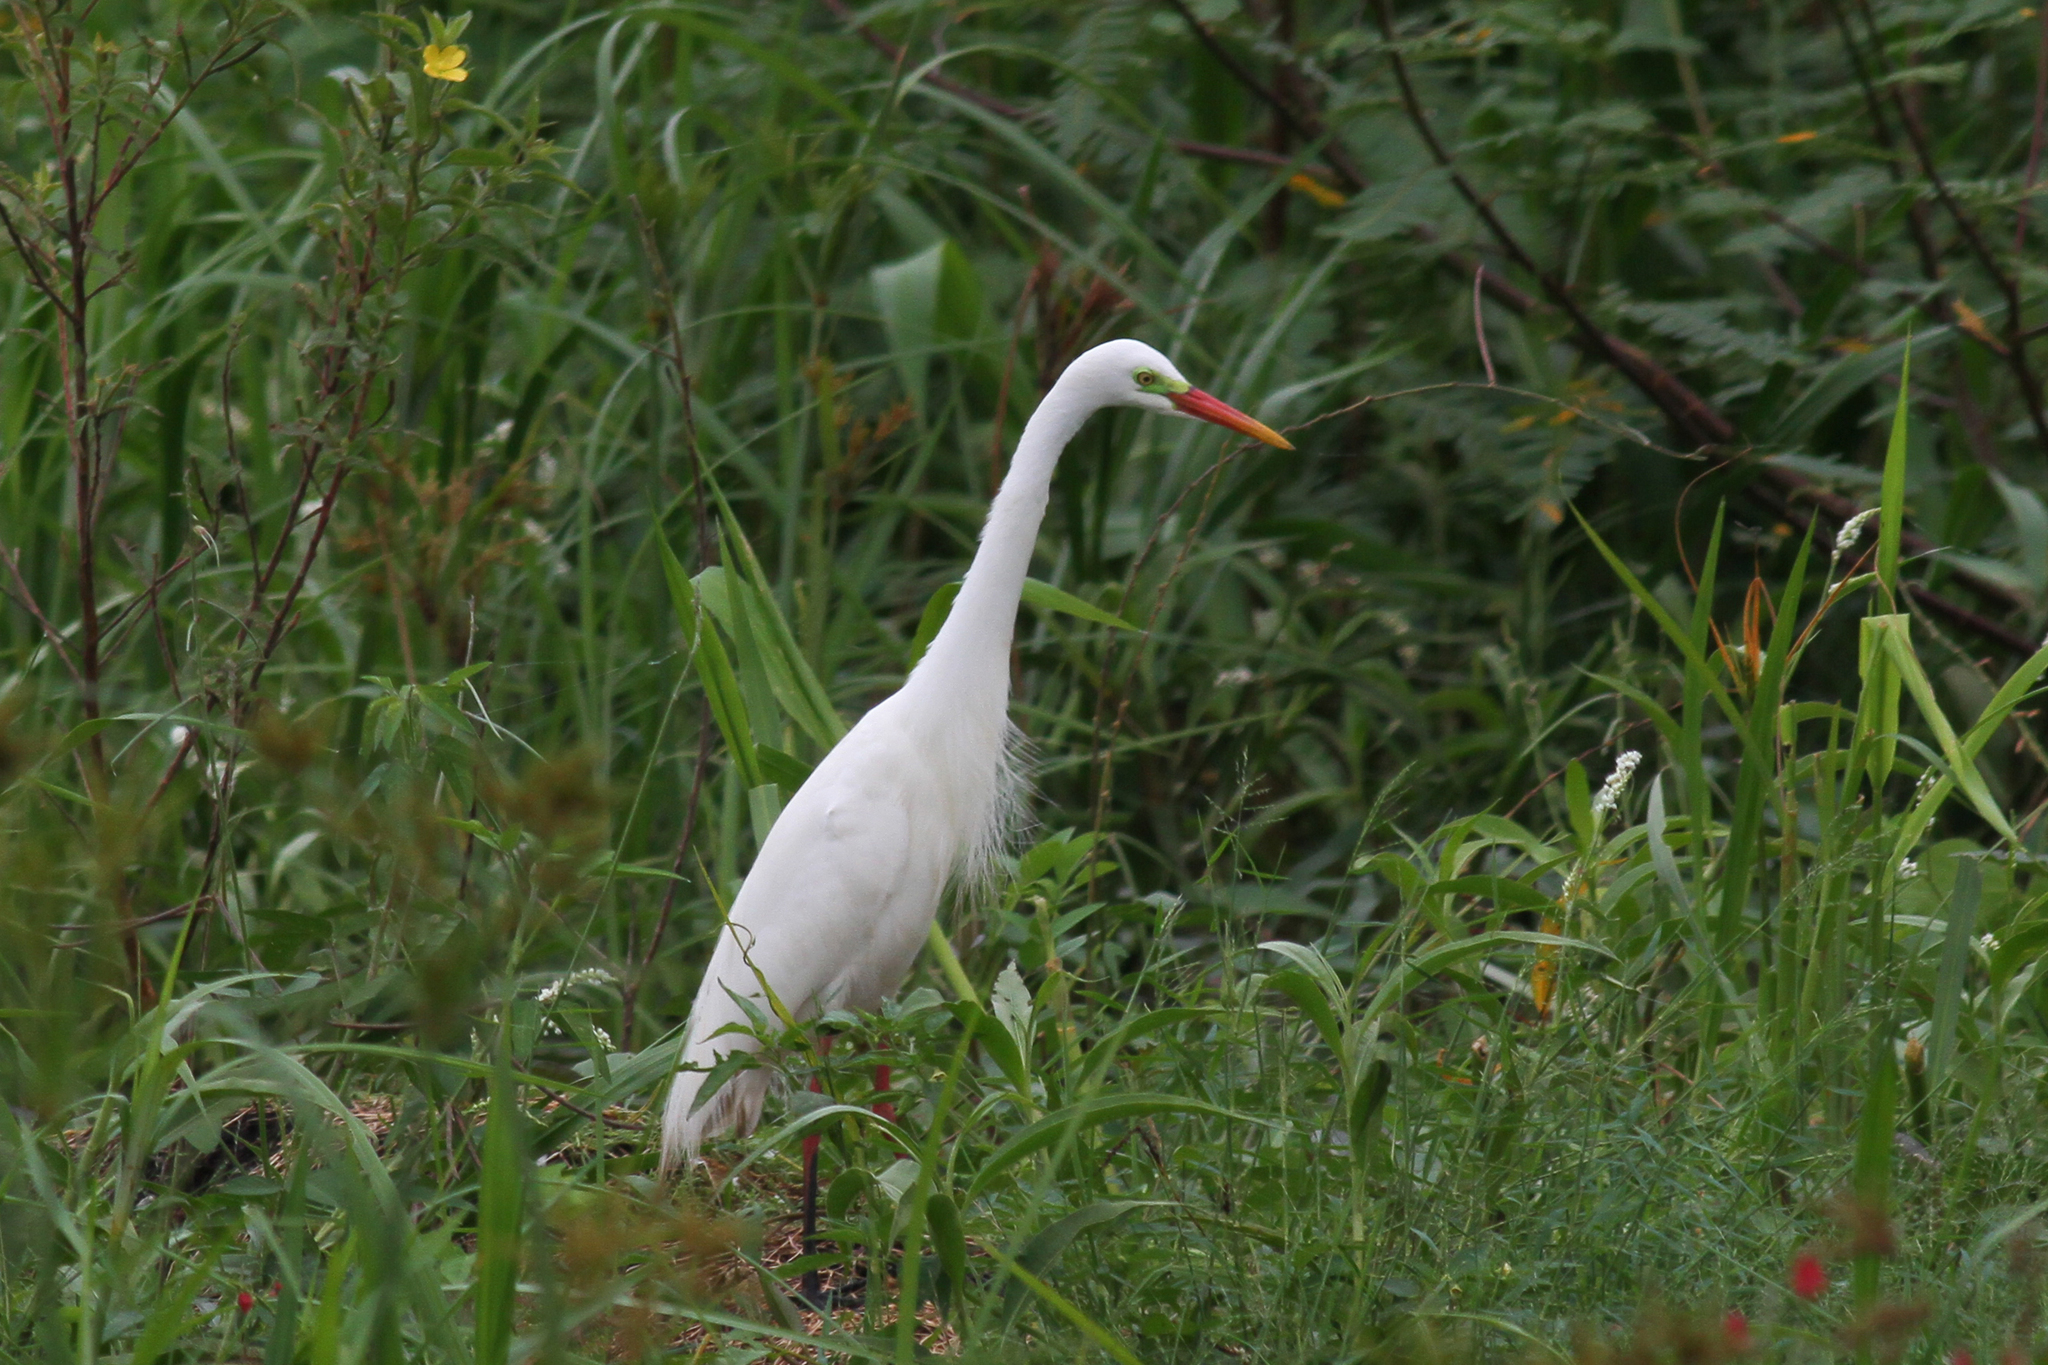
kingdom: Animalia
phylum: Chordata
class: Aves
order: Pelecaniformes
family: Ardeidae
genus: Egretta
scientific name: Egretta intermedia
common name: Intermediate egret
